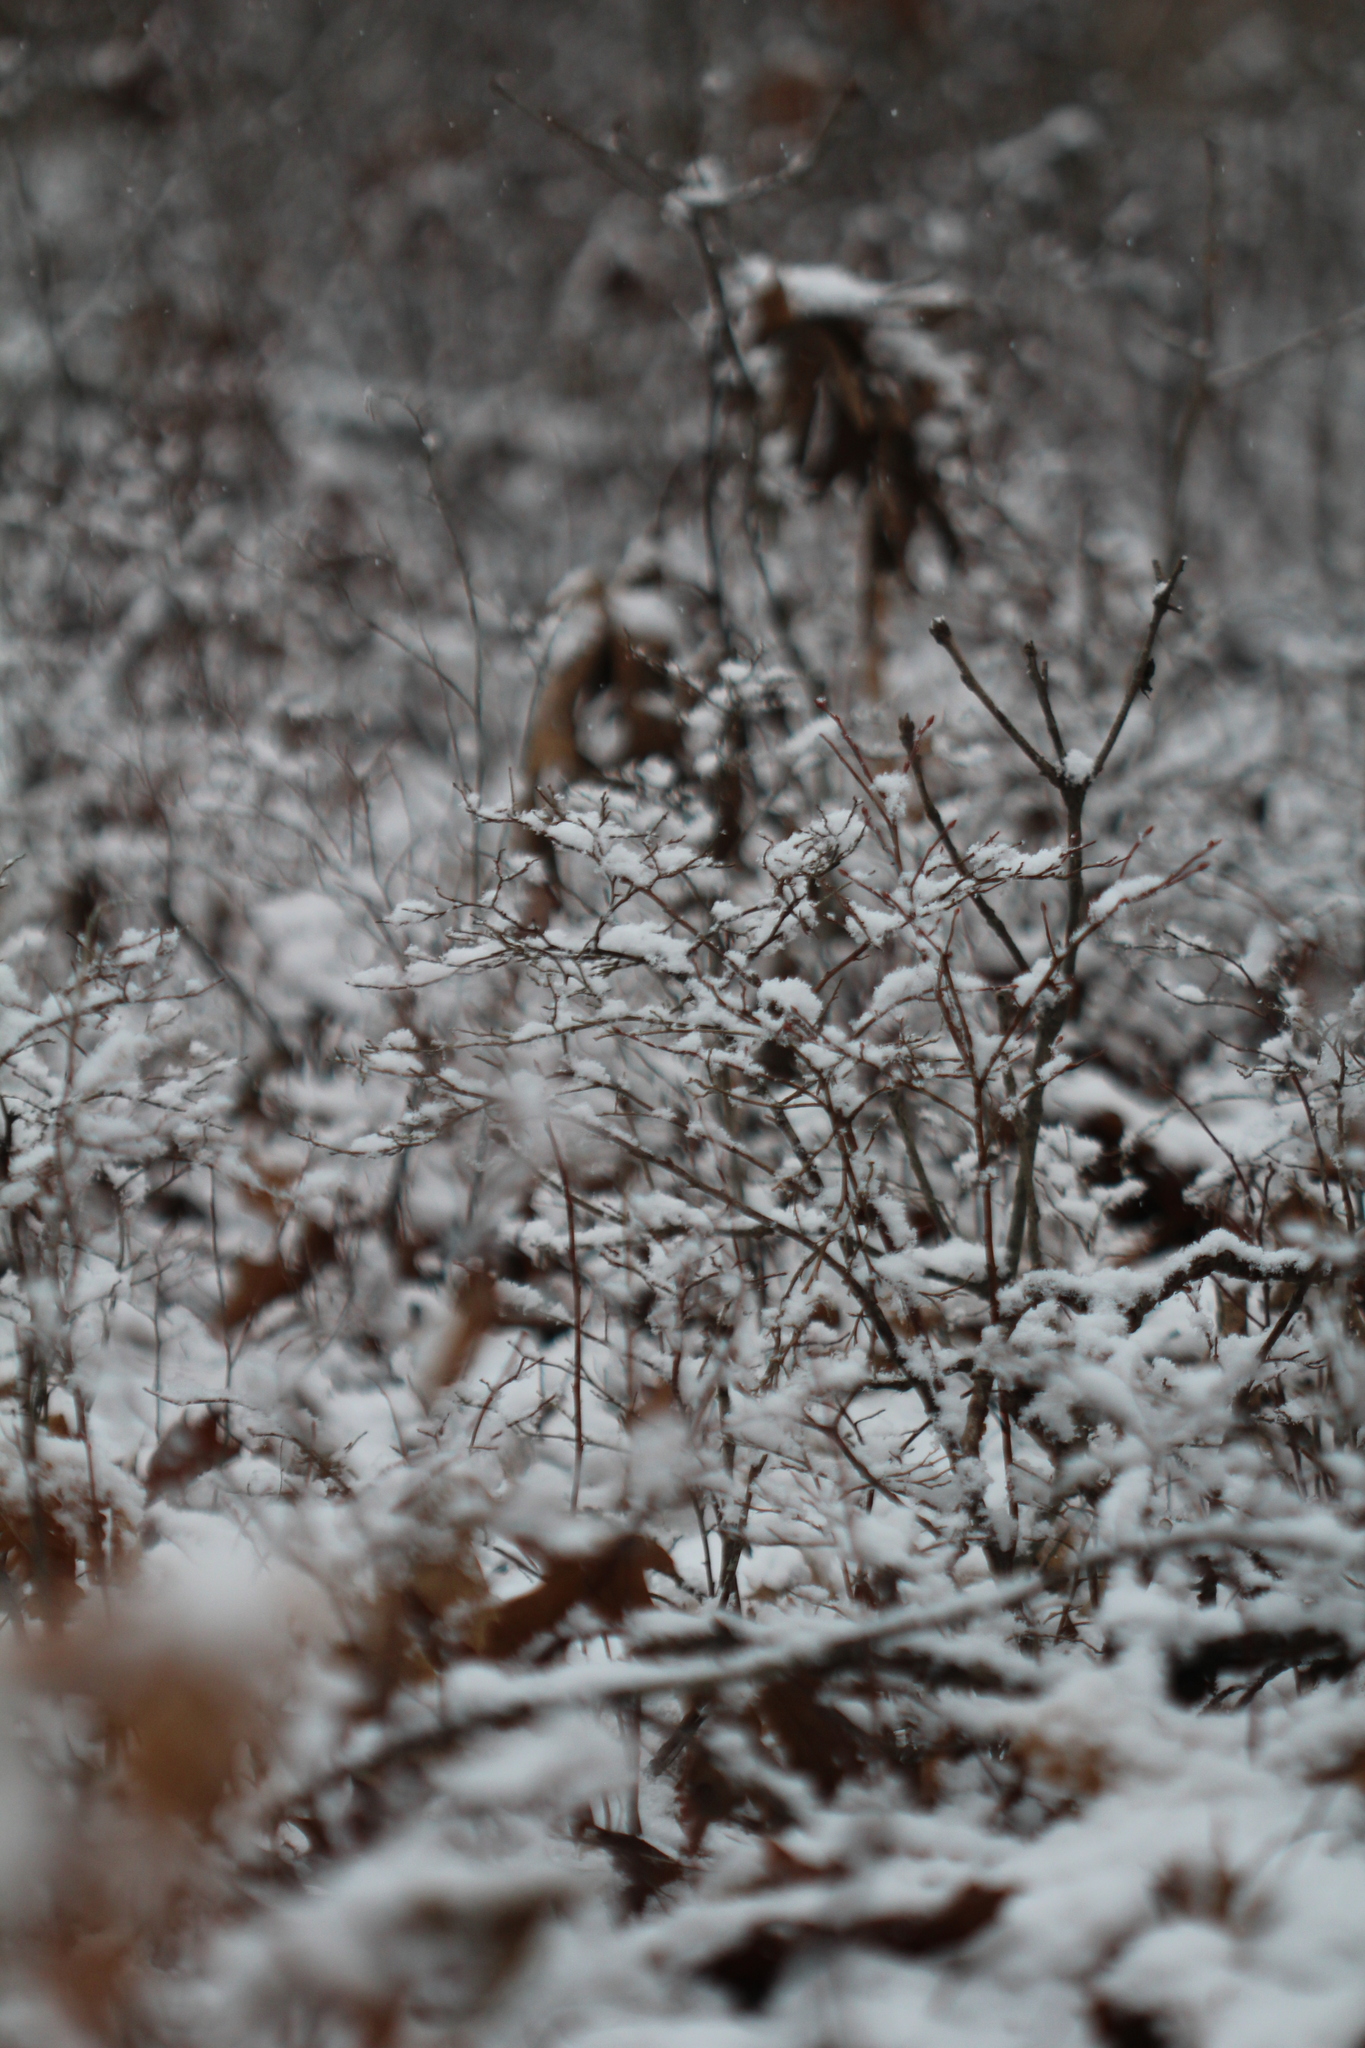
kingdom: Plantae
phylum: Tracheophyta
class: Magnoliopsida
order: Ericales
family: Ericaceae
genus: Vaccinium
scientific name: Vaccinium angustifolium
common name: Early lowbush blueberry
